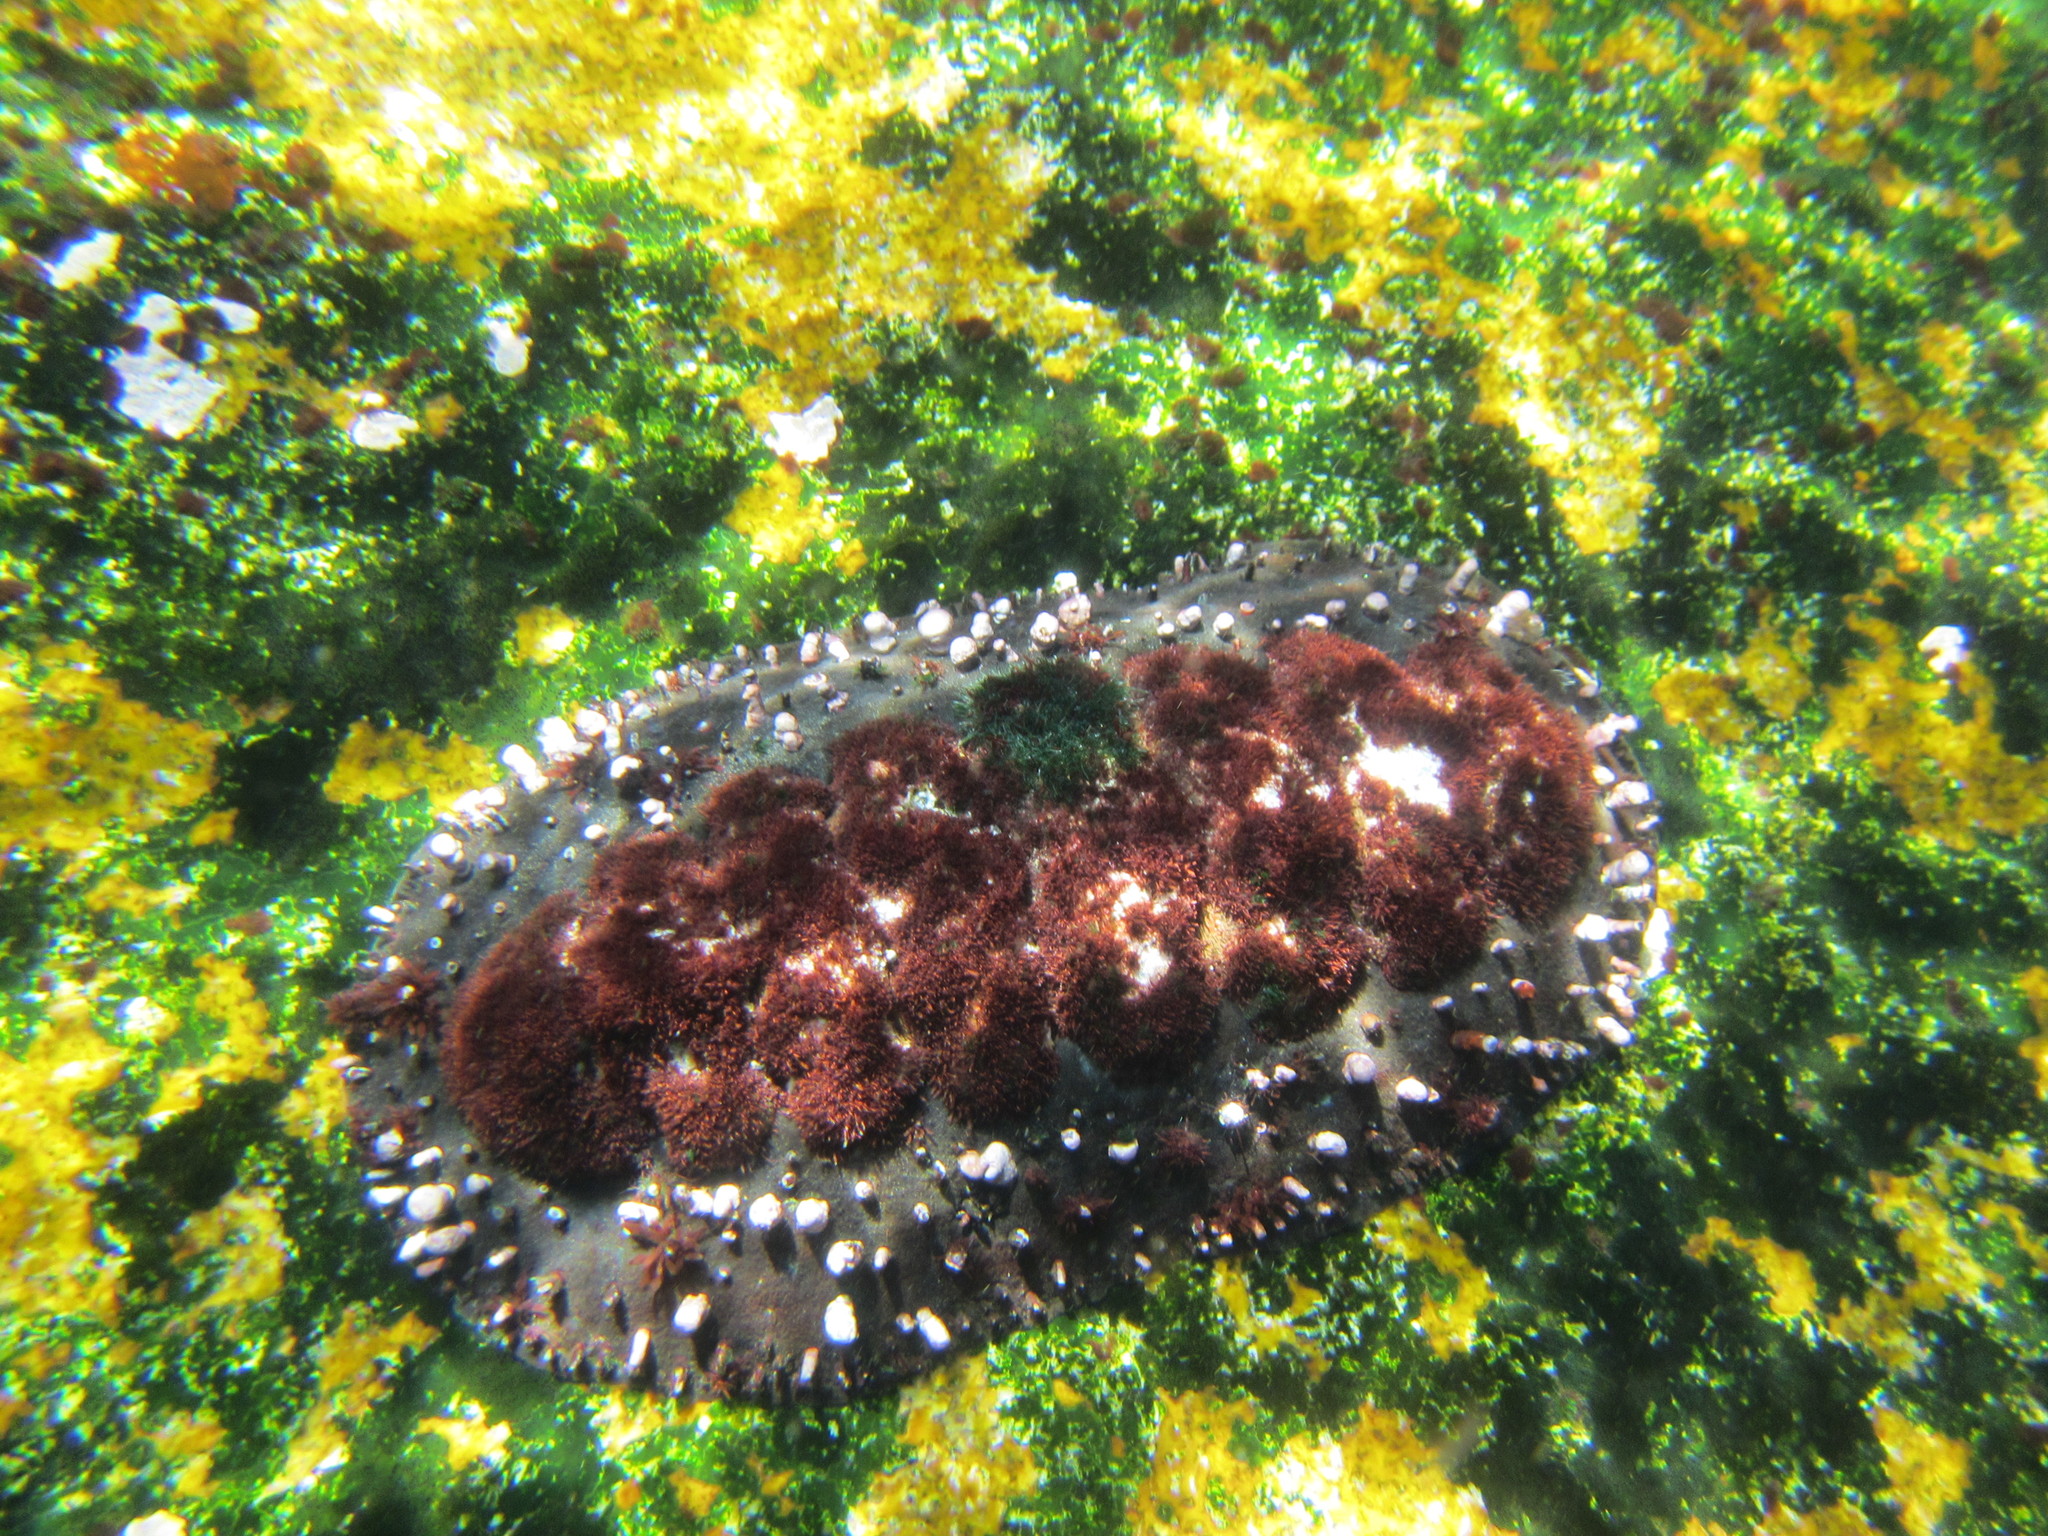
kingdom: Animalia
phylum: Mollusca
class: Polyplacophora
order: Chitonida
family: Chitonidae
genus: Enoplochiton
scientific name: Enoplochiton echinatus
